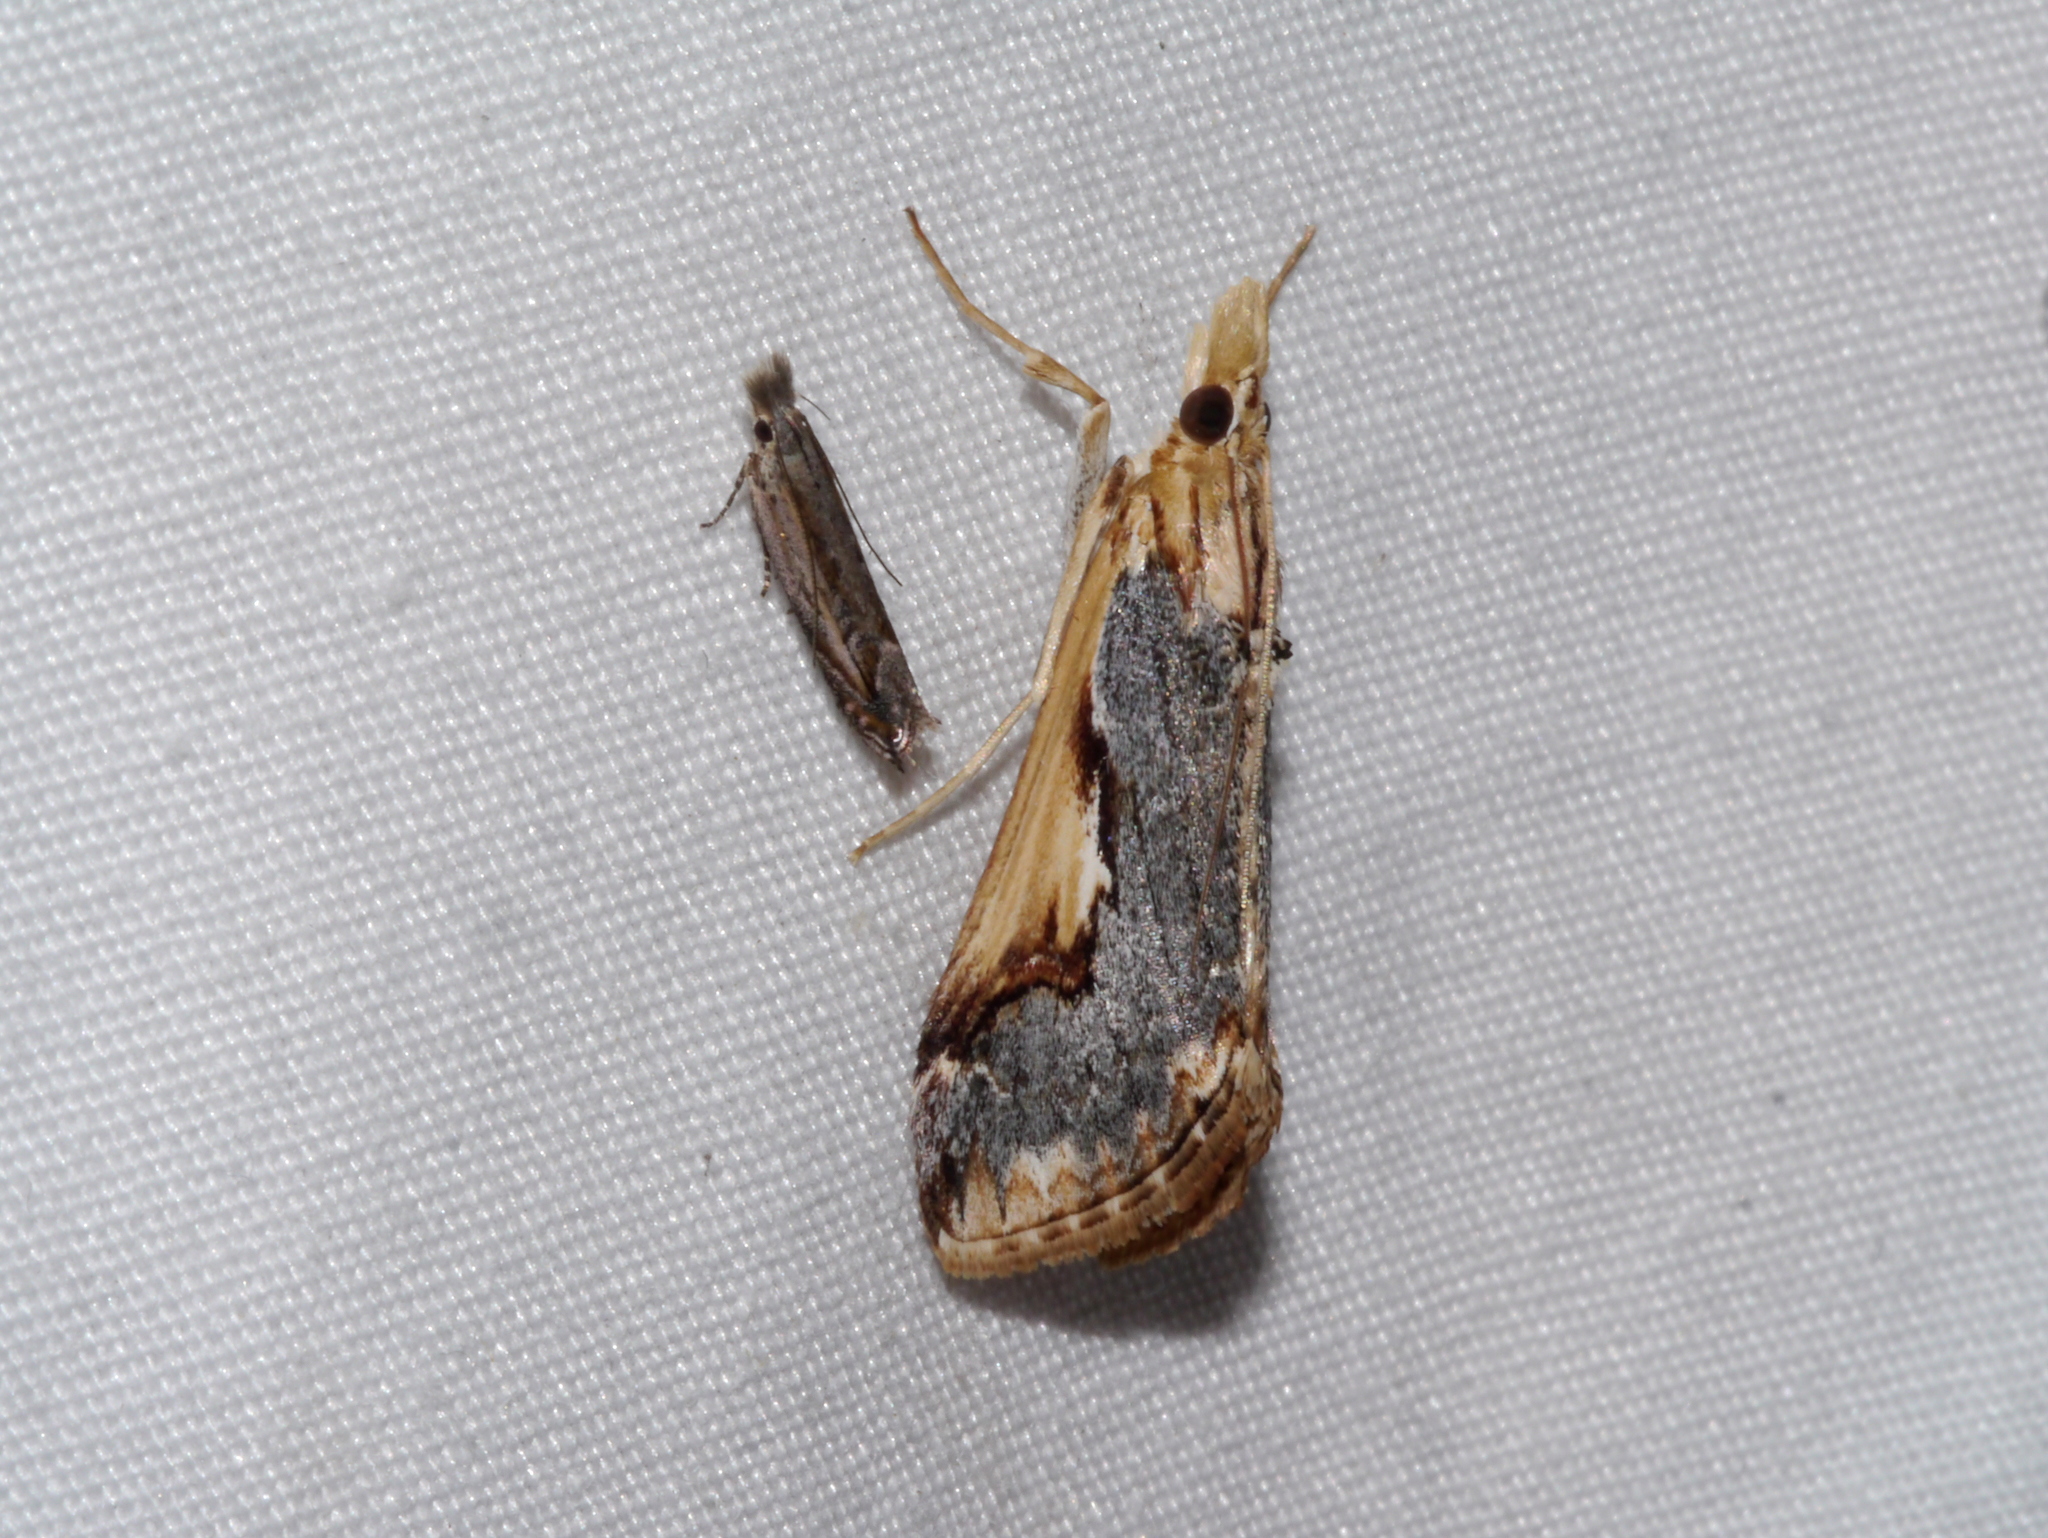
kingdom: Animalia
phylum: Arthropoda
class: Insecta
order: Lepidoptera
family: Crambidae
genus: Loxostege
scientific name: Loxostege albiceralis
